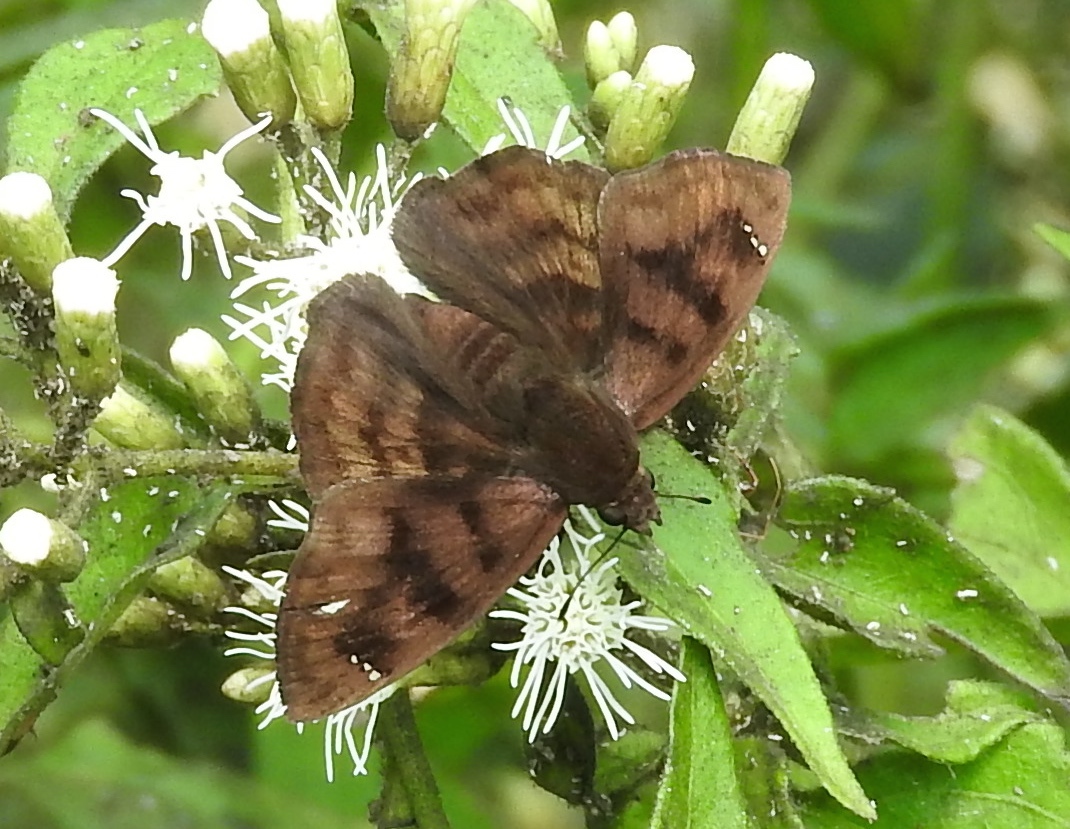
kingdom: Animalia
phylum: Arthropoda
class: Insecta
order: Lepidoptera
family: Hesperiidae
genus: Nisoniades
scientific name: Nisoniades
